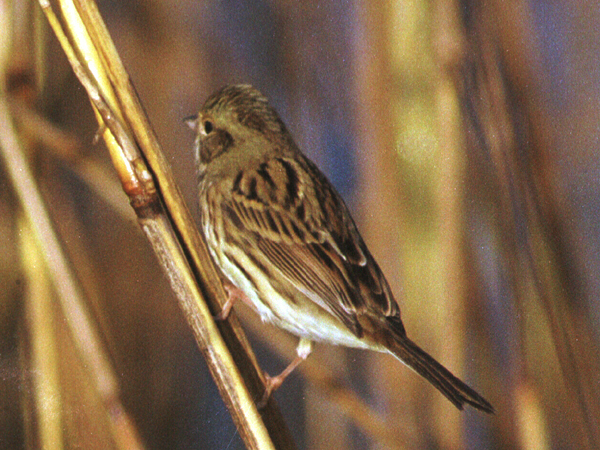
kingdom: Animalia
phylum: Chordata
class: Aves
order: Passeriformes
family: Emberizidae
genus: Emberiza
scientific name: Emberiza spodocephala
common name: Black-faced bunting
